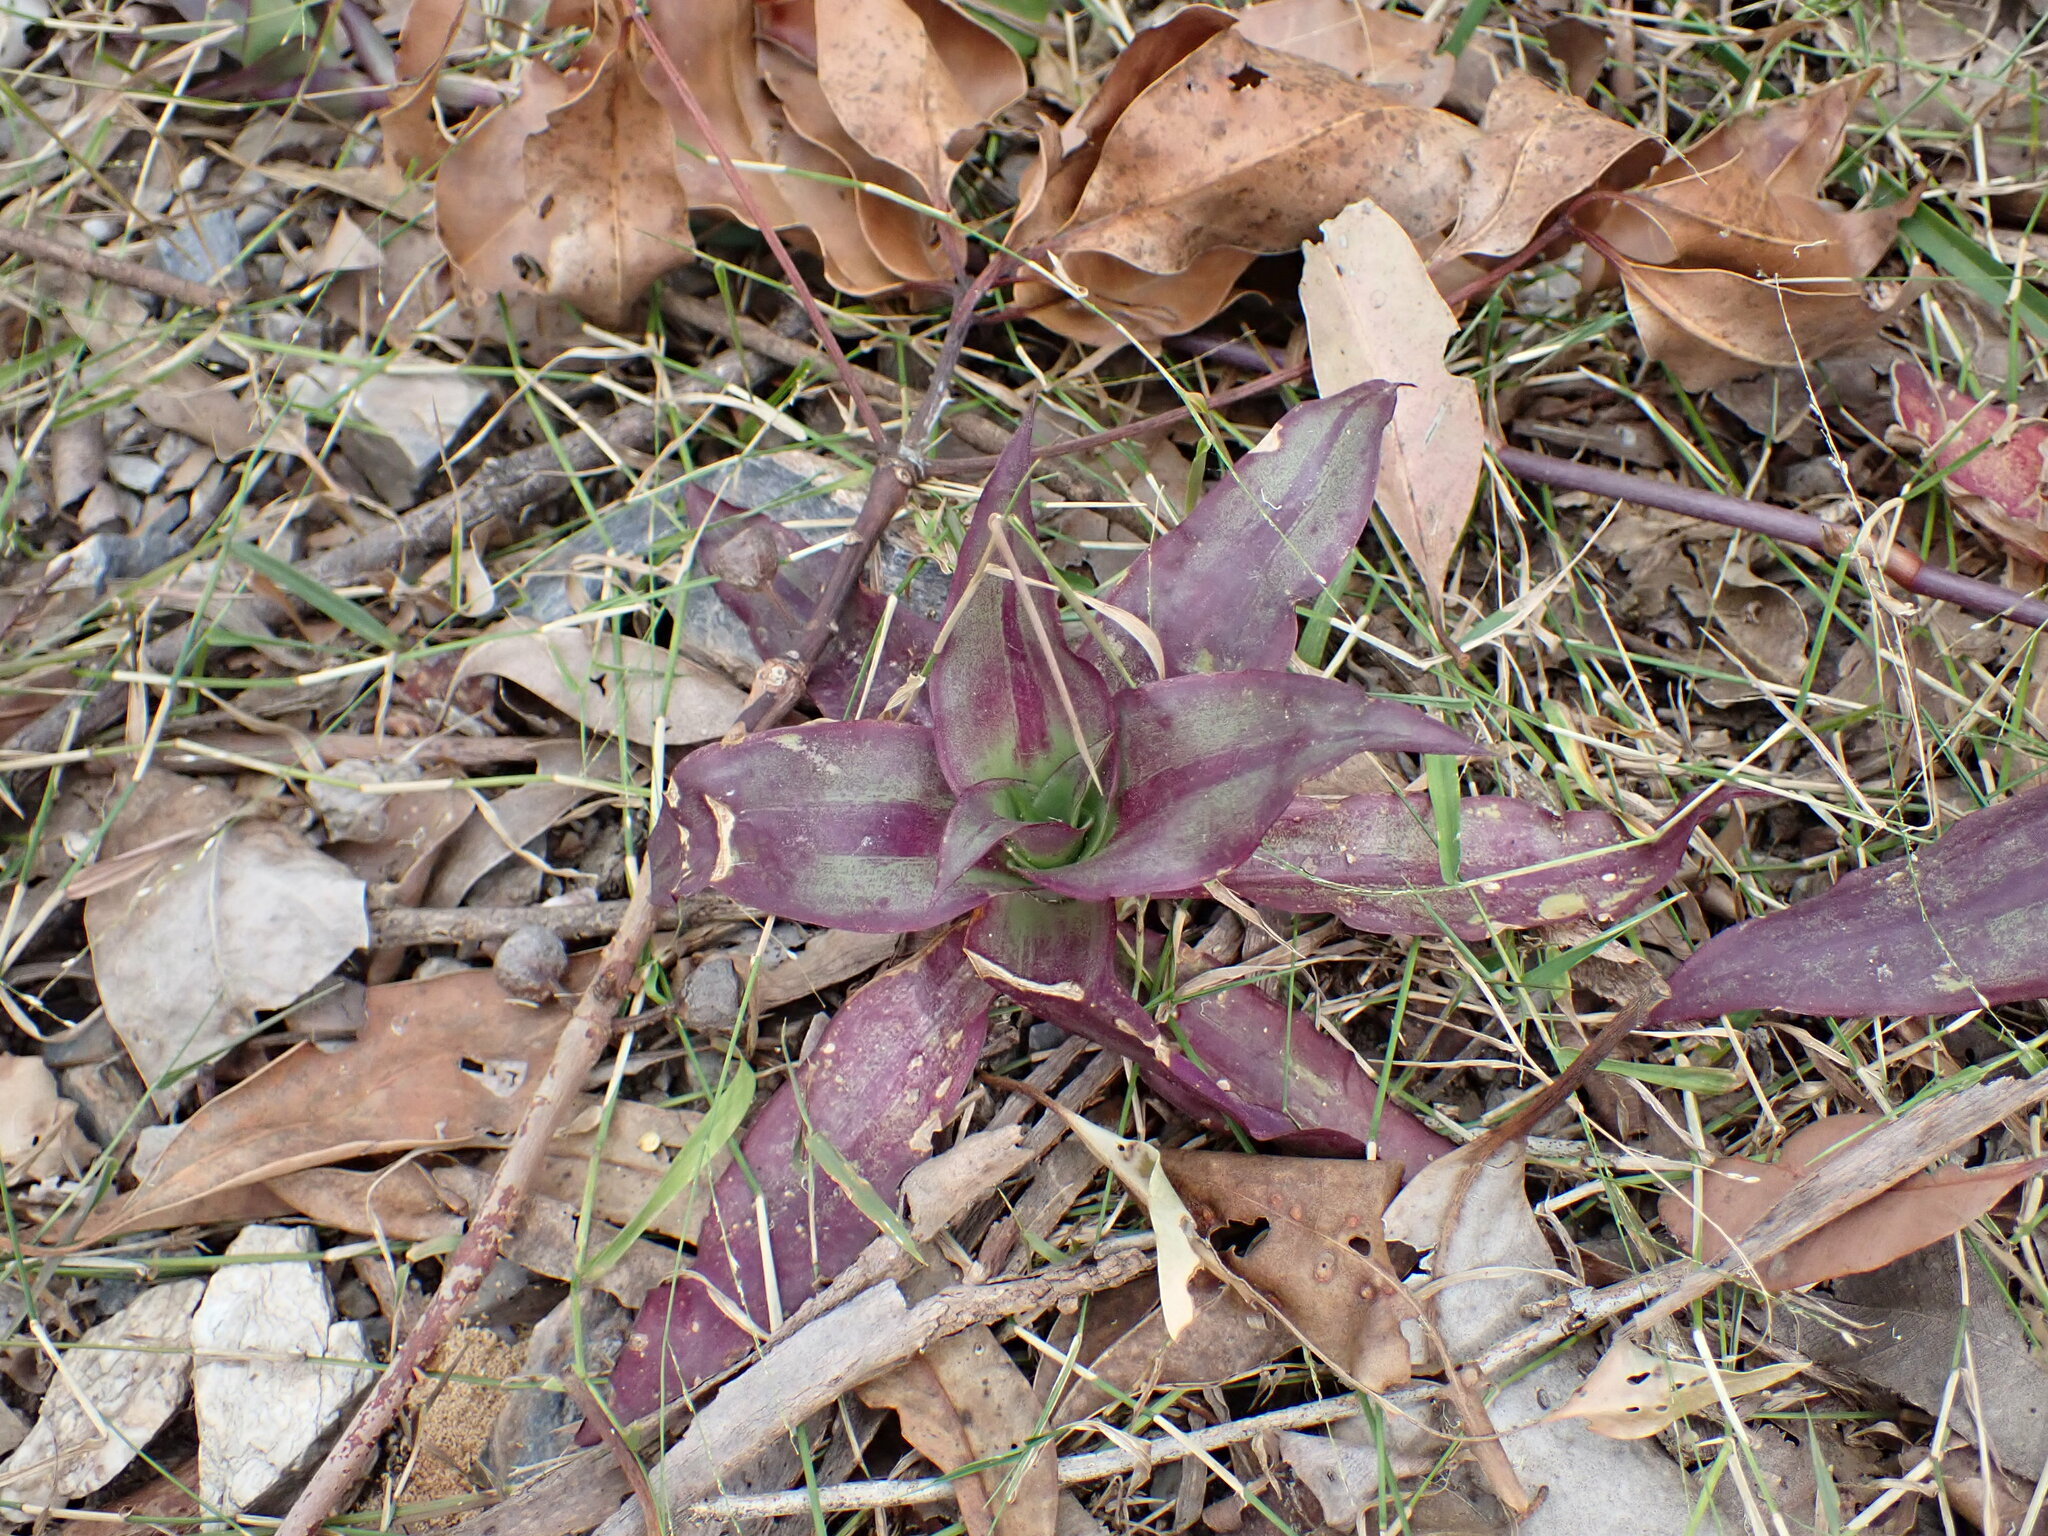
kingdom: Plantae
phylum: Tracheophyta
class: Liliopsida
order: Commelinales
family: Commelinaceae
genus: Callisia
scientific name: Callisia fragrans
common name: Basketplant
